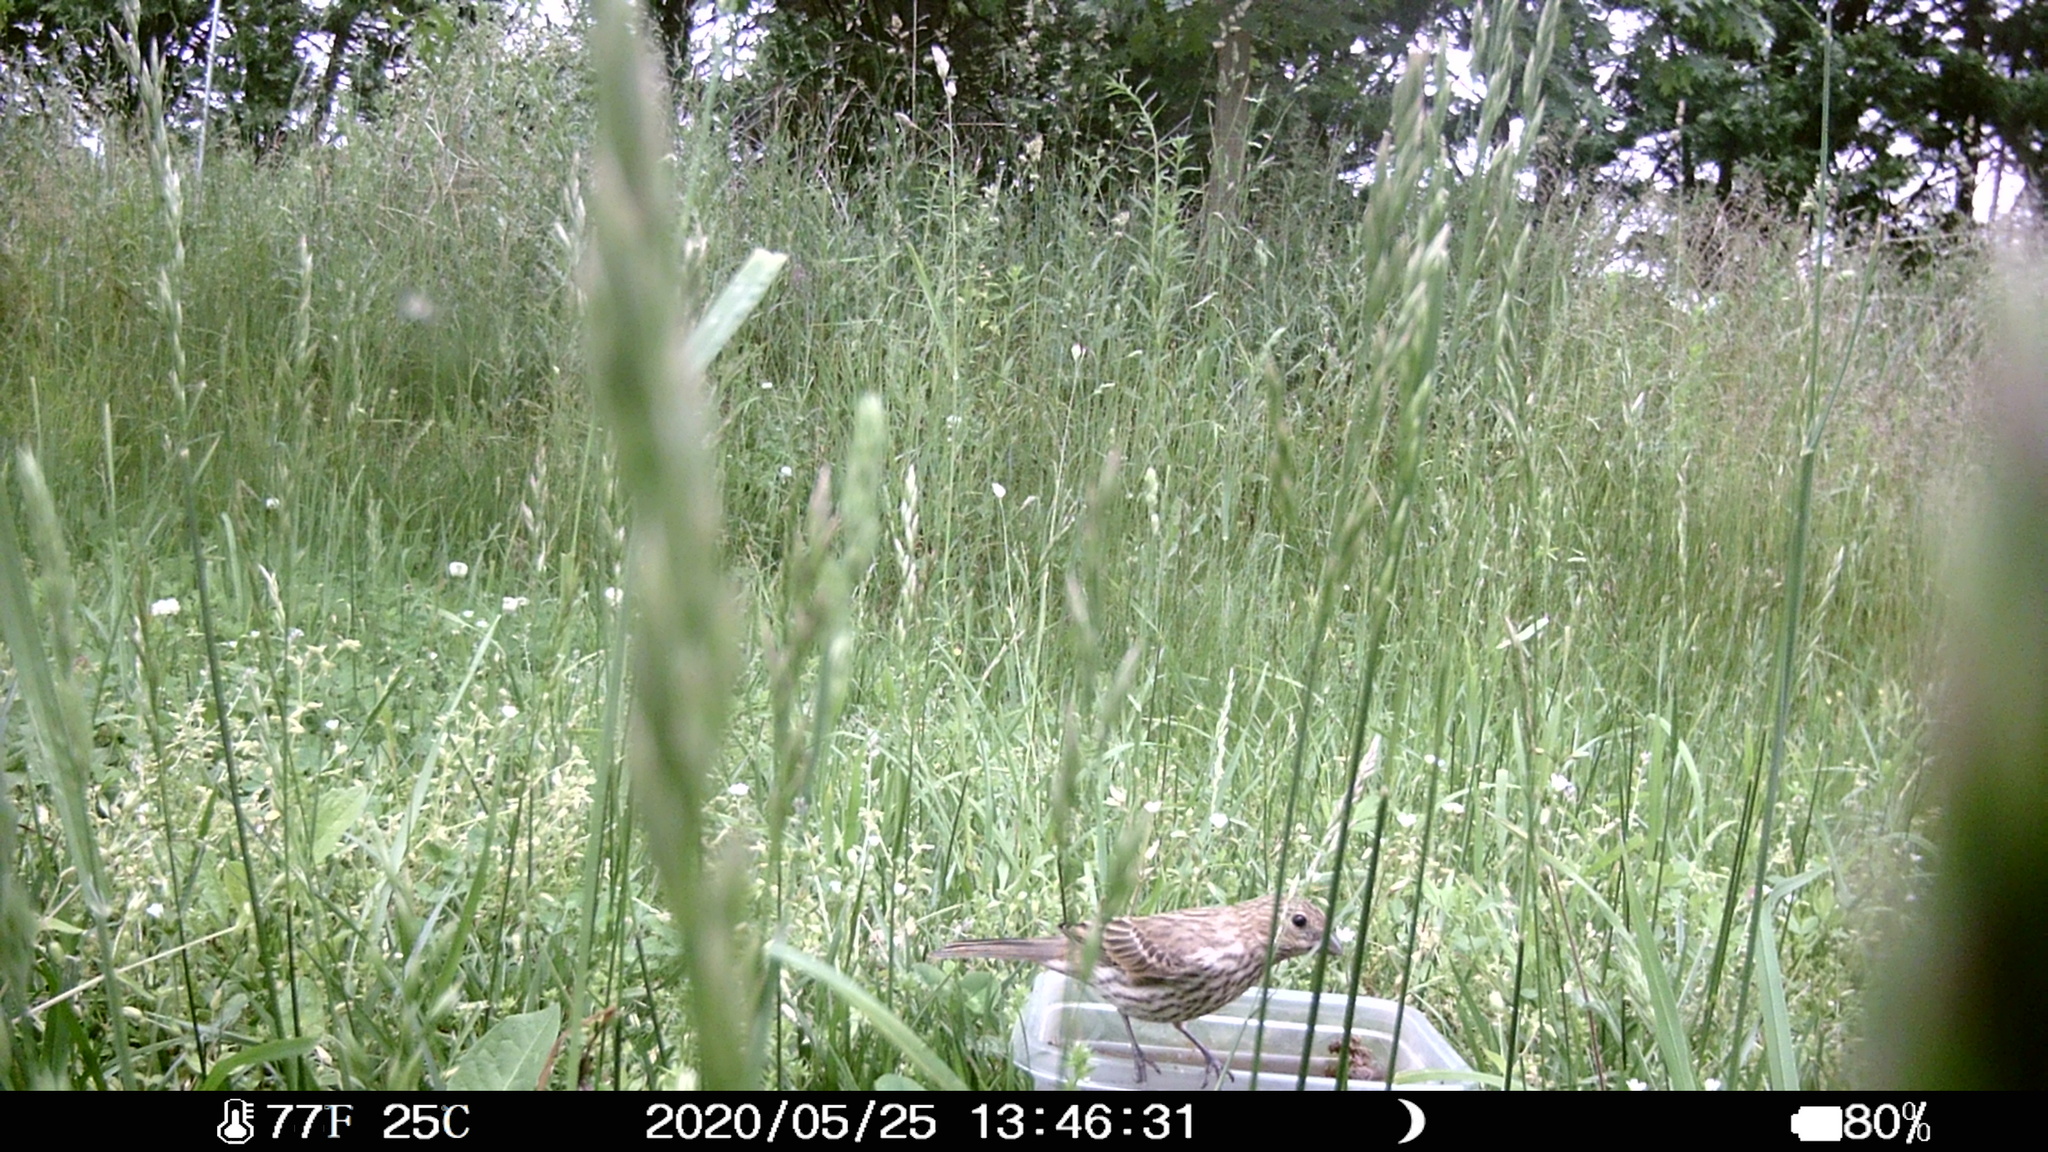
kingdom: Animalia
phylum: Chordata
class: Aves
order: Passeriformes
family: Fringillidae
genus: Haemorhous
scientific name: Haemorhous mexicanus
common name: House finch
